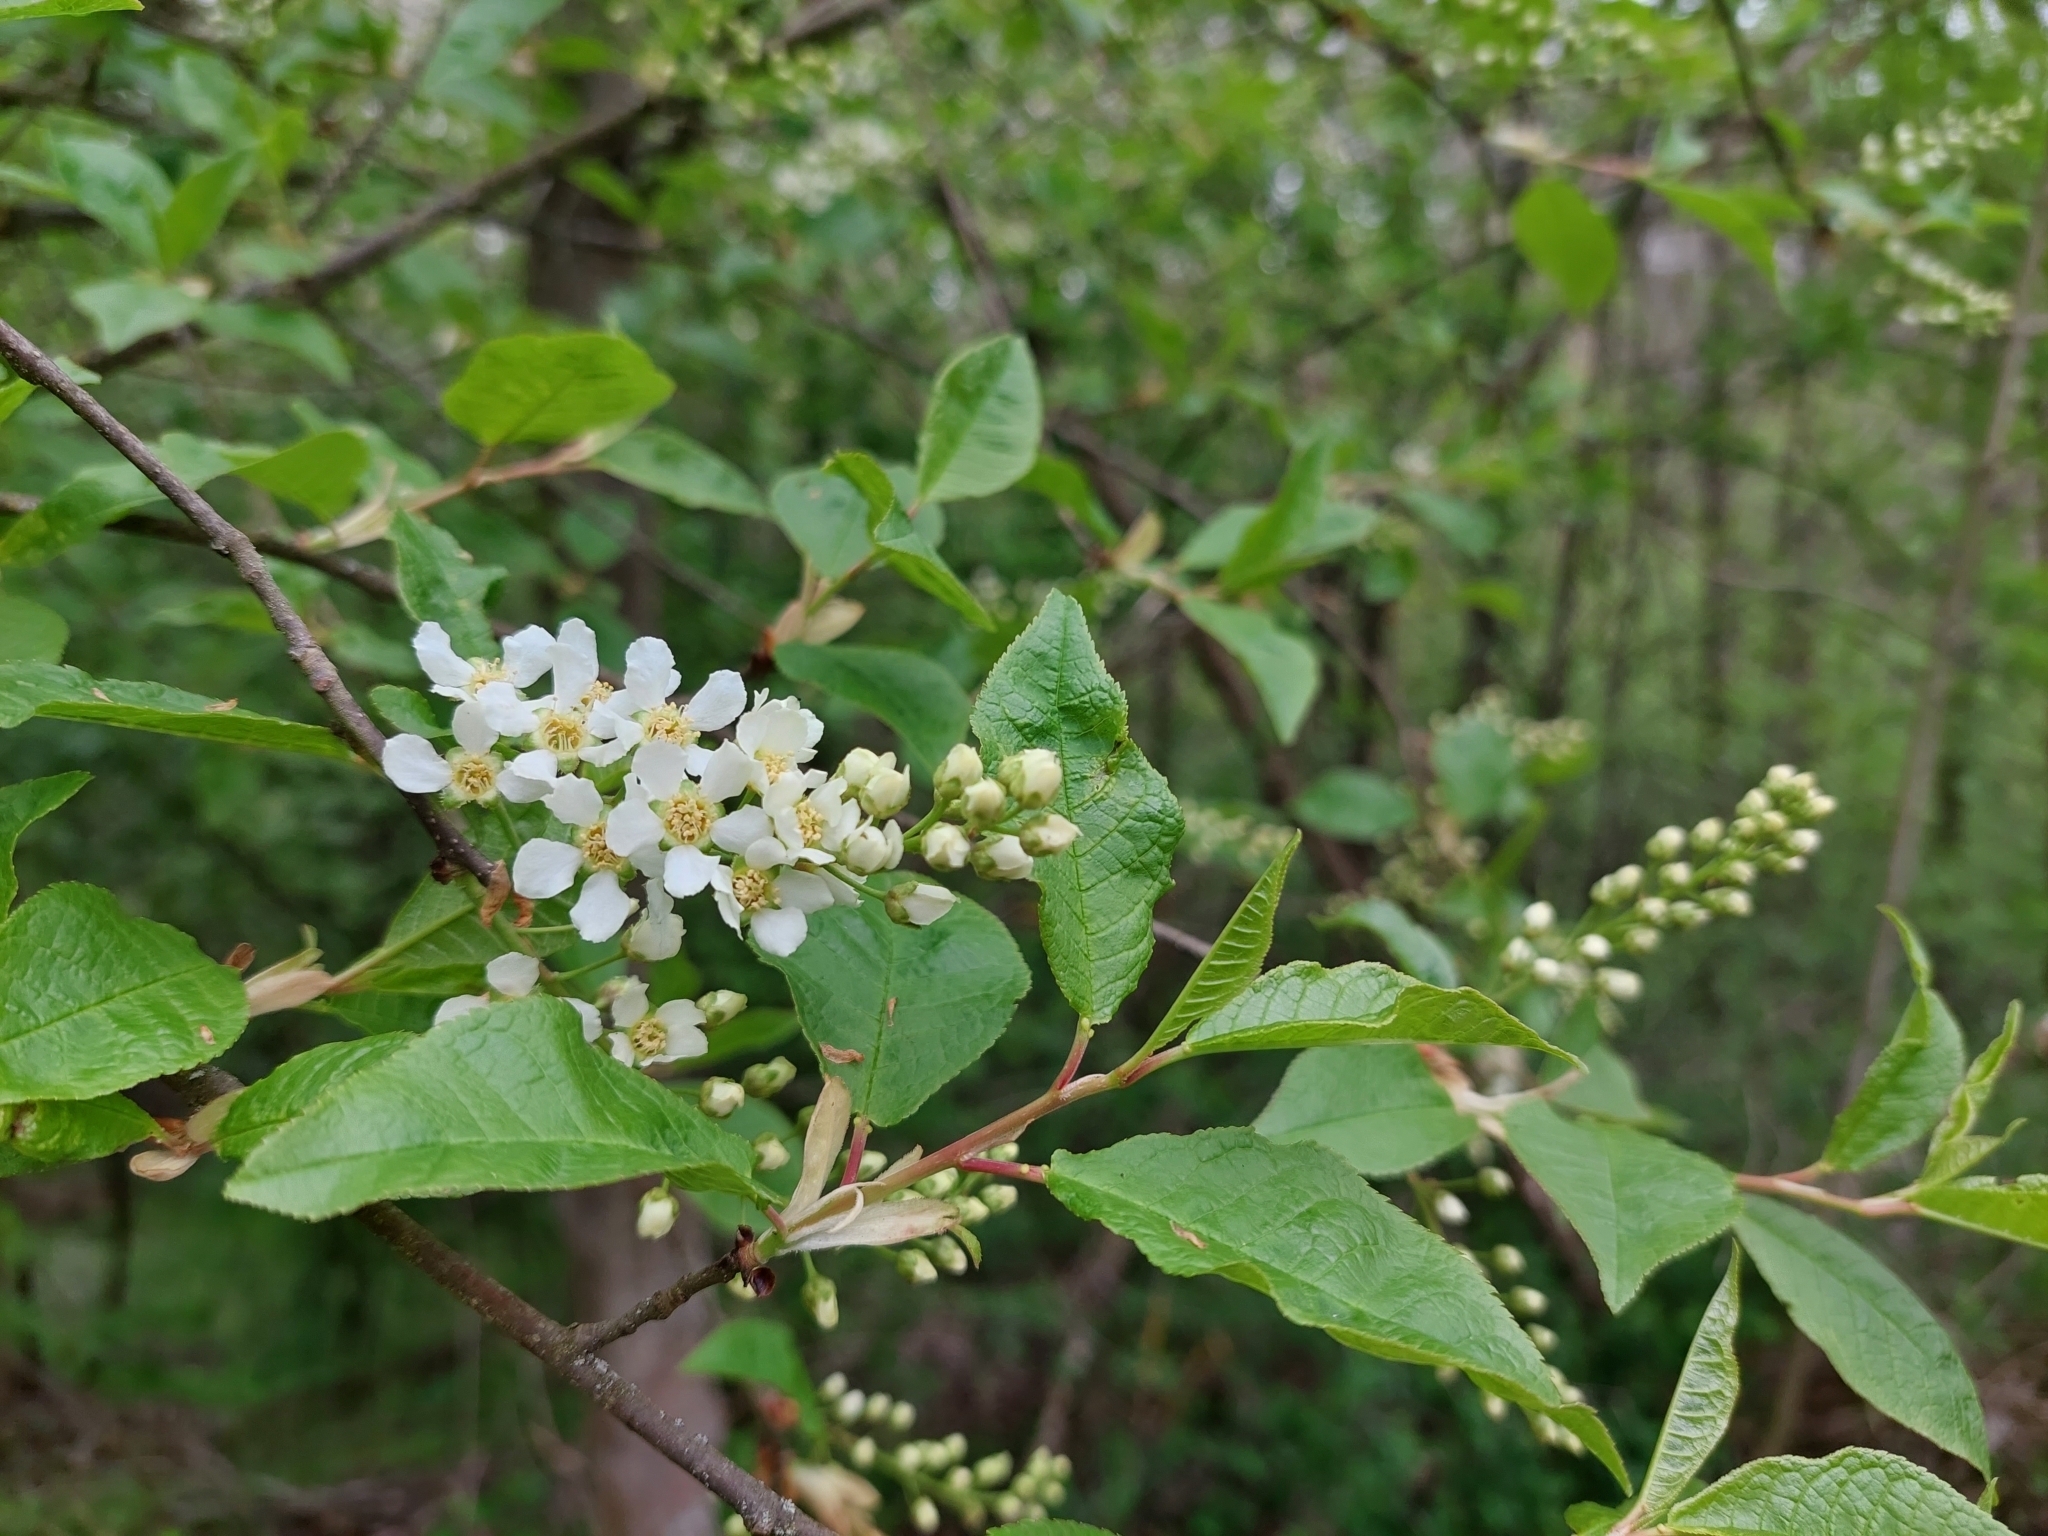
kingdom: Plantae
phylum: Tracheophyta
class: Magnoliopsida
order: Rosales
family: Rosaceae
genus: Prunus
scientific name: Prunus padus
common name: Bird cherry
